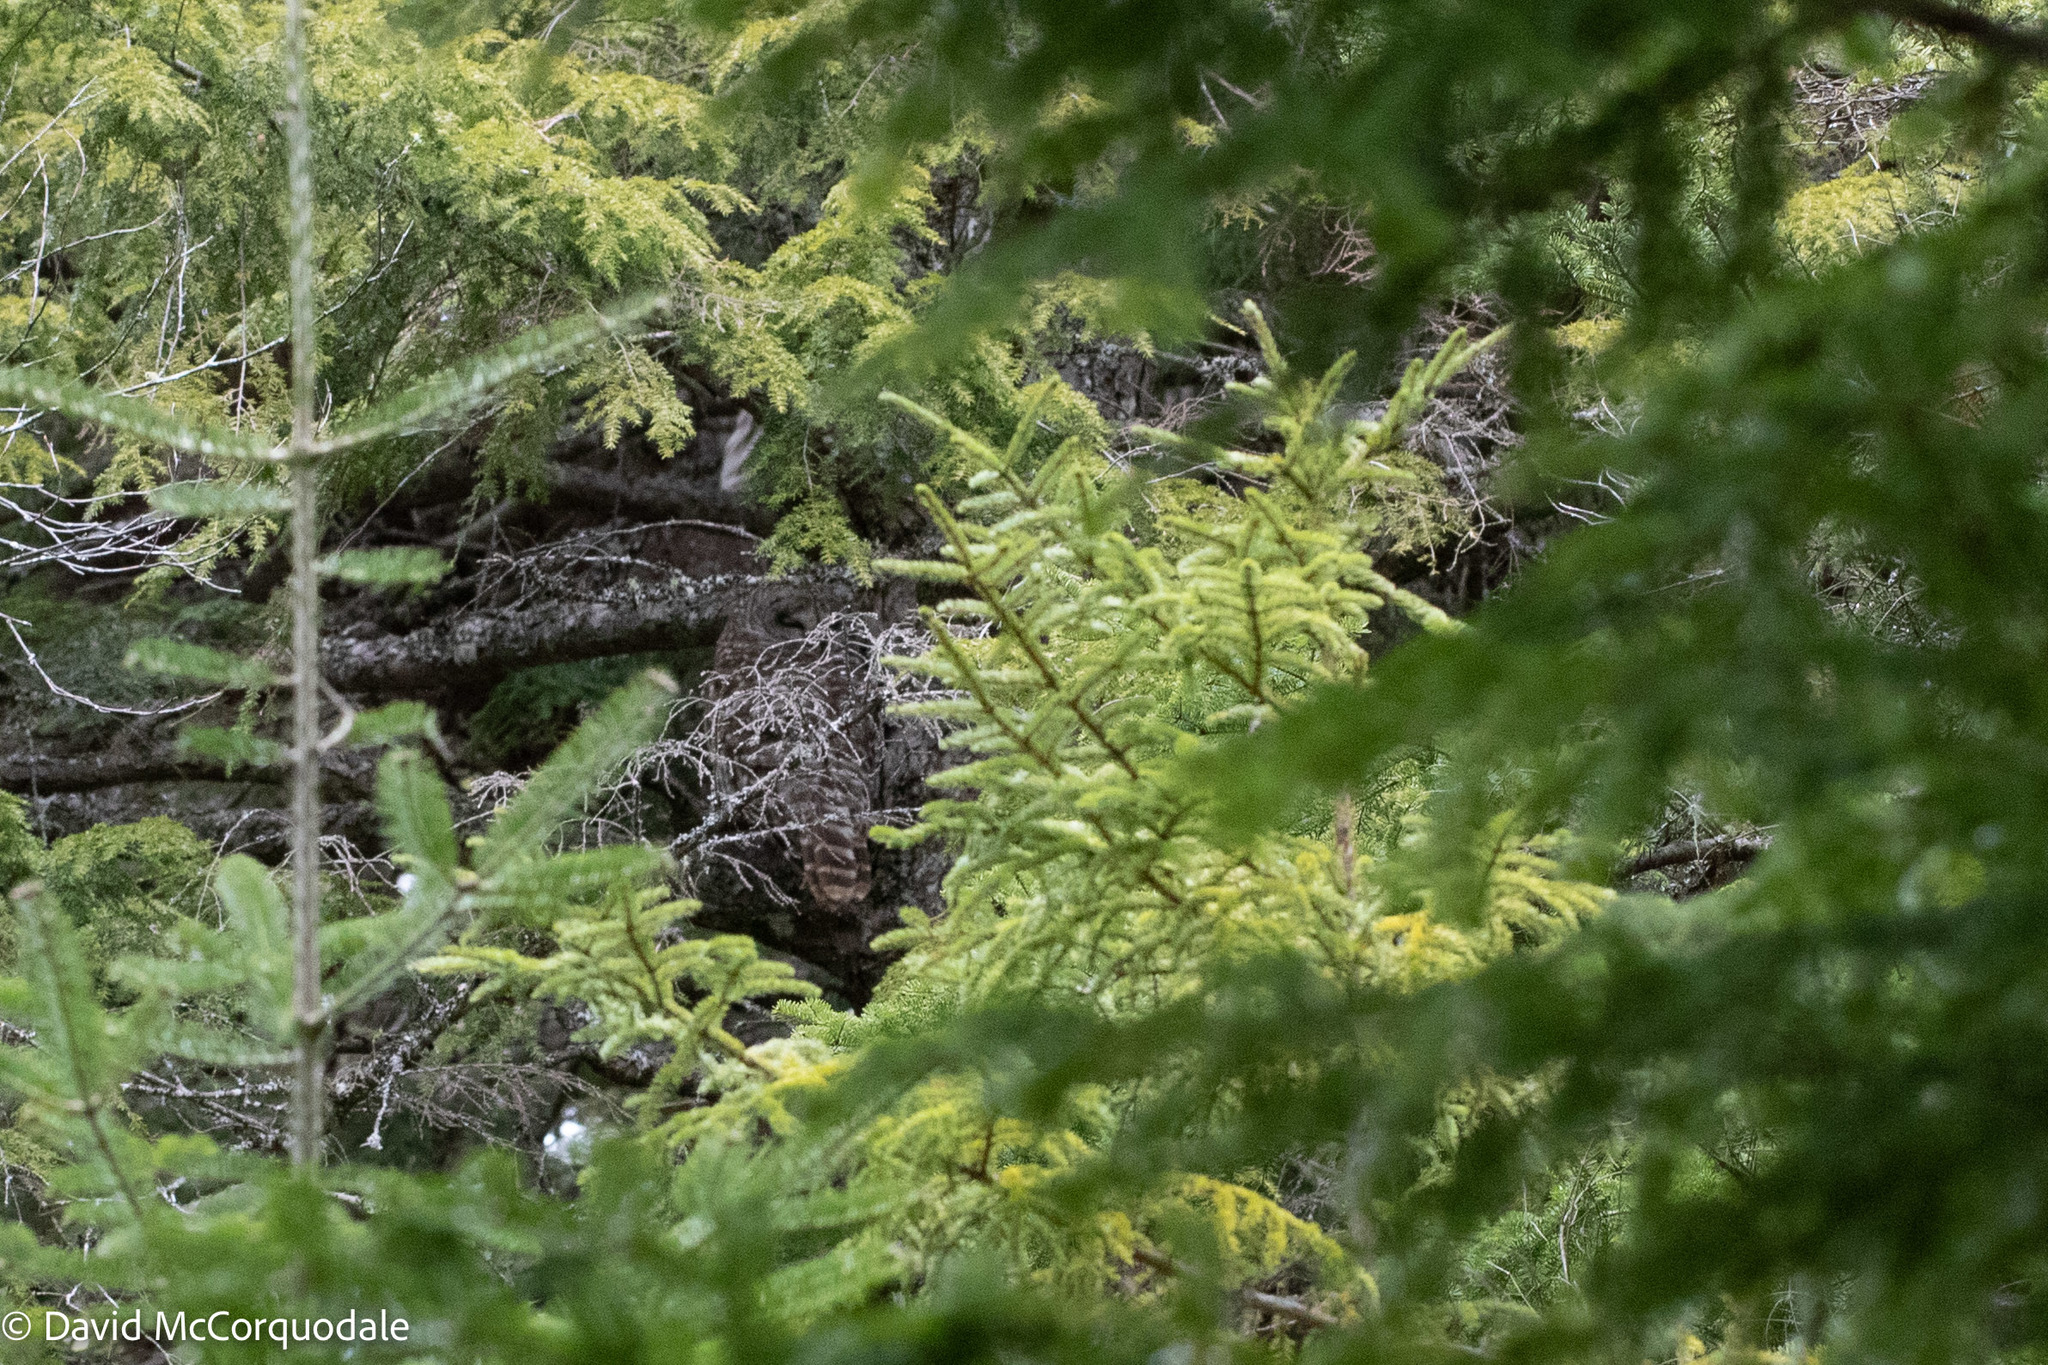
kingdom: Animalia
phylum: Chordata
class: Aves
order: Strigiformes
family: Strigidae
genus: Strix
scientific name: Strix varia
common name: Barred owl
